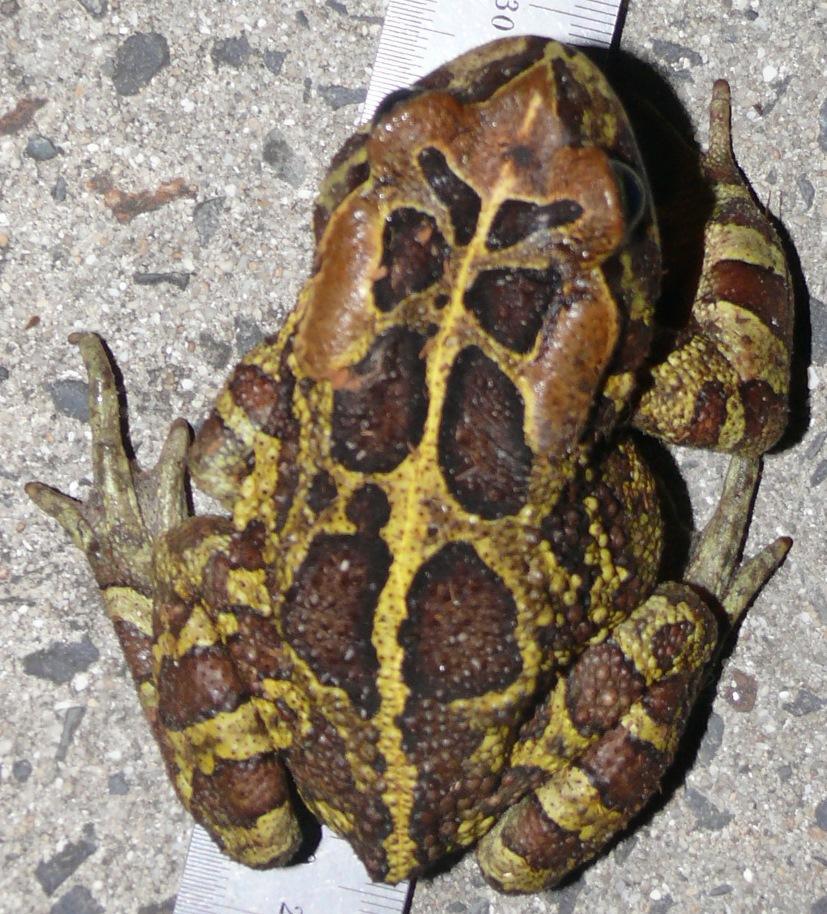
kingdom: Animalia
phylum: Chordata
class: Amphibia
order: Anura
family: Bufonidae
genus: Sclerophrys
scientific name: Sclerophrys pantherina
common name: Panther toad
